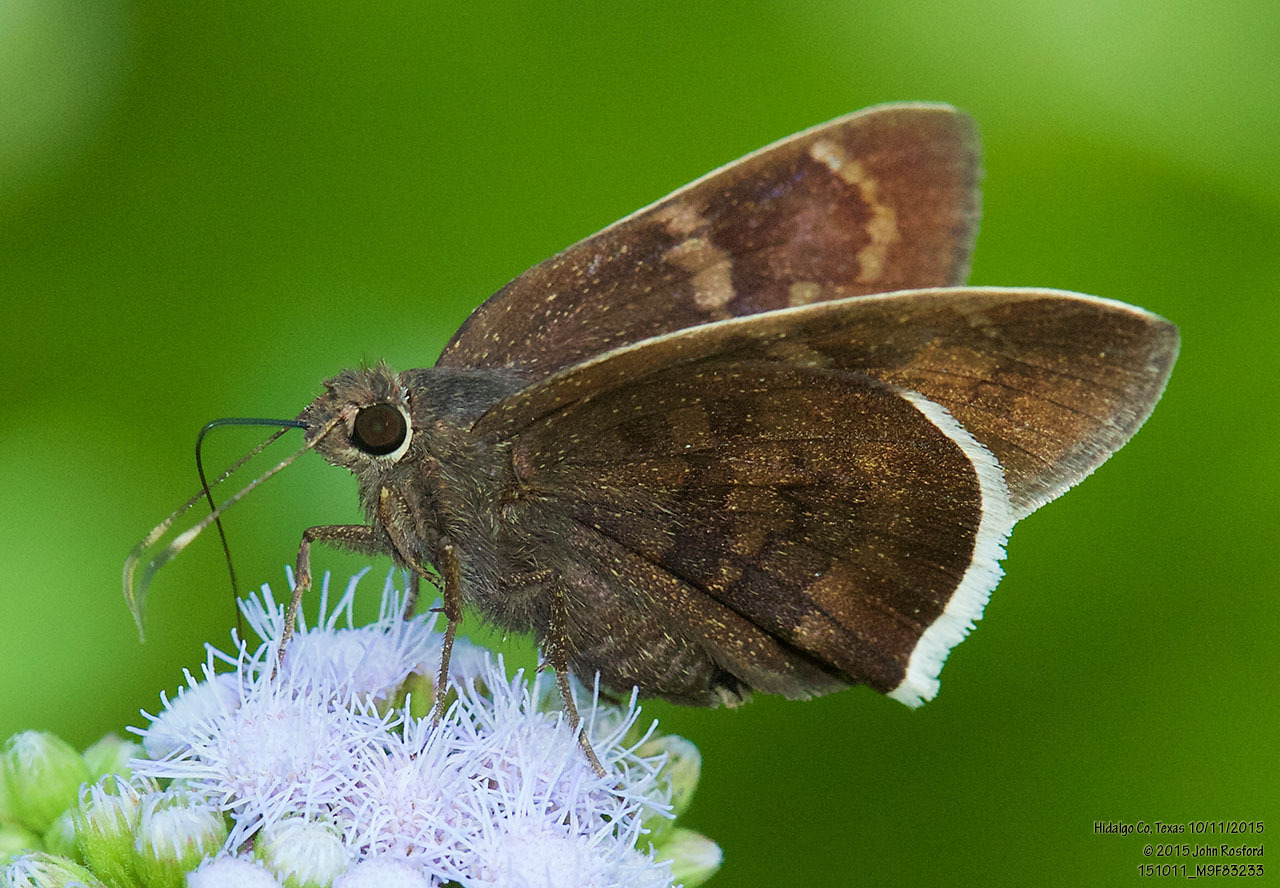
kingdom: Animalia
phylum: Arthropoda
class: Insecta
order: Lepidoptera
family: Hesperiidae
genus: Achalarus
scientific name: Achalarus Murgaria albociliatus
